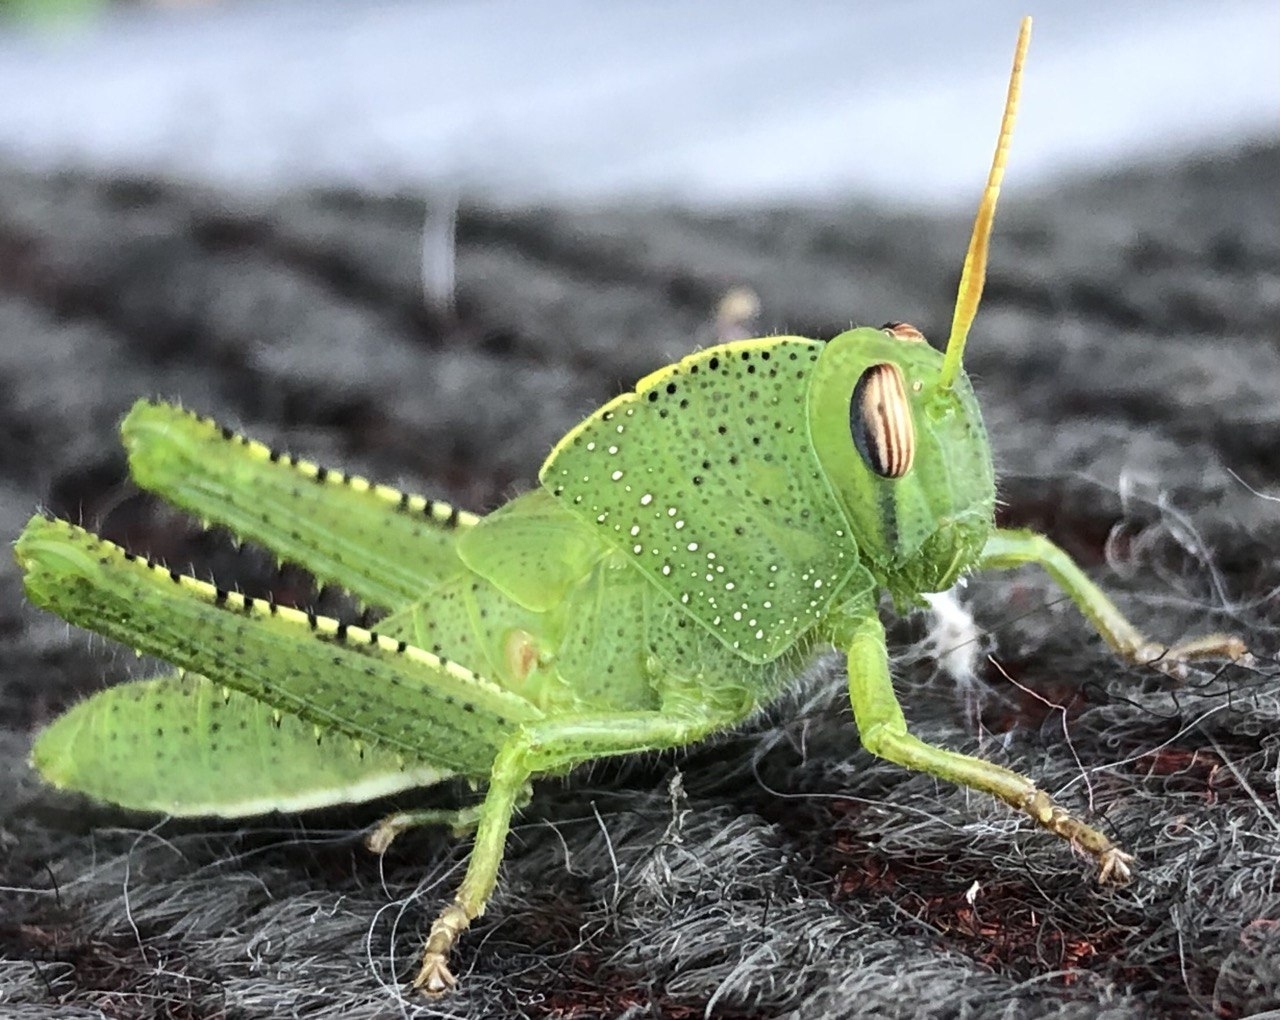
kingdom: Animalia
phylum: Arthropoda
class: Insecta
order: Orthoptera
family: Acrididae
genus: Anacridium
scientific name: Anacridium aegyptium
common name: Egyptian grasshopper
